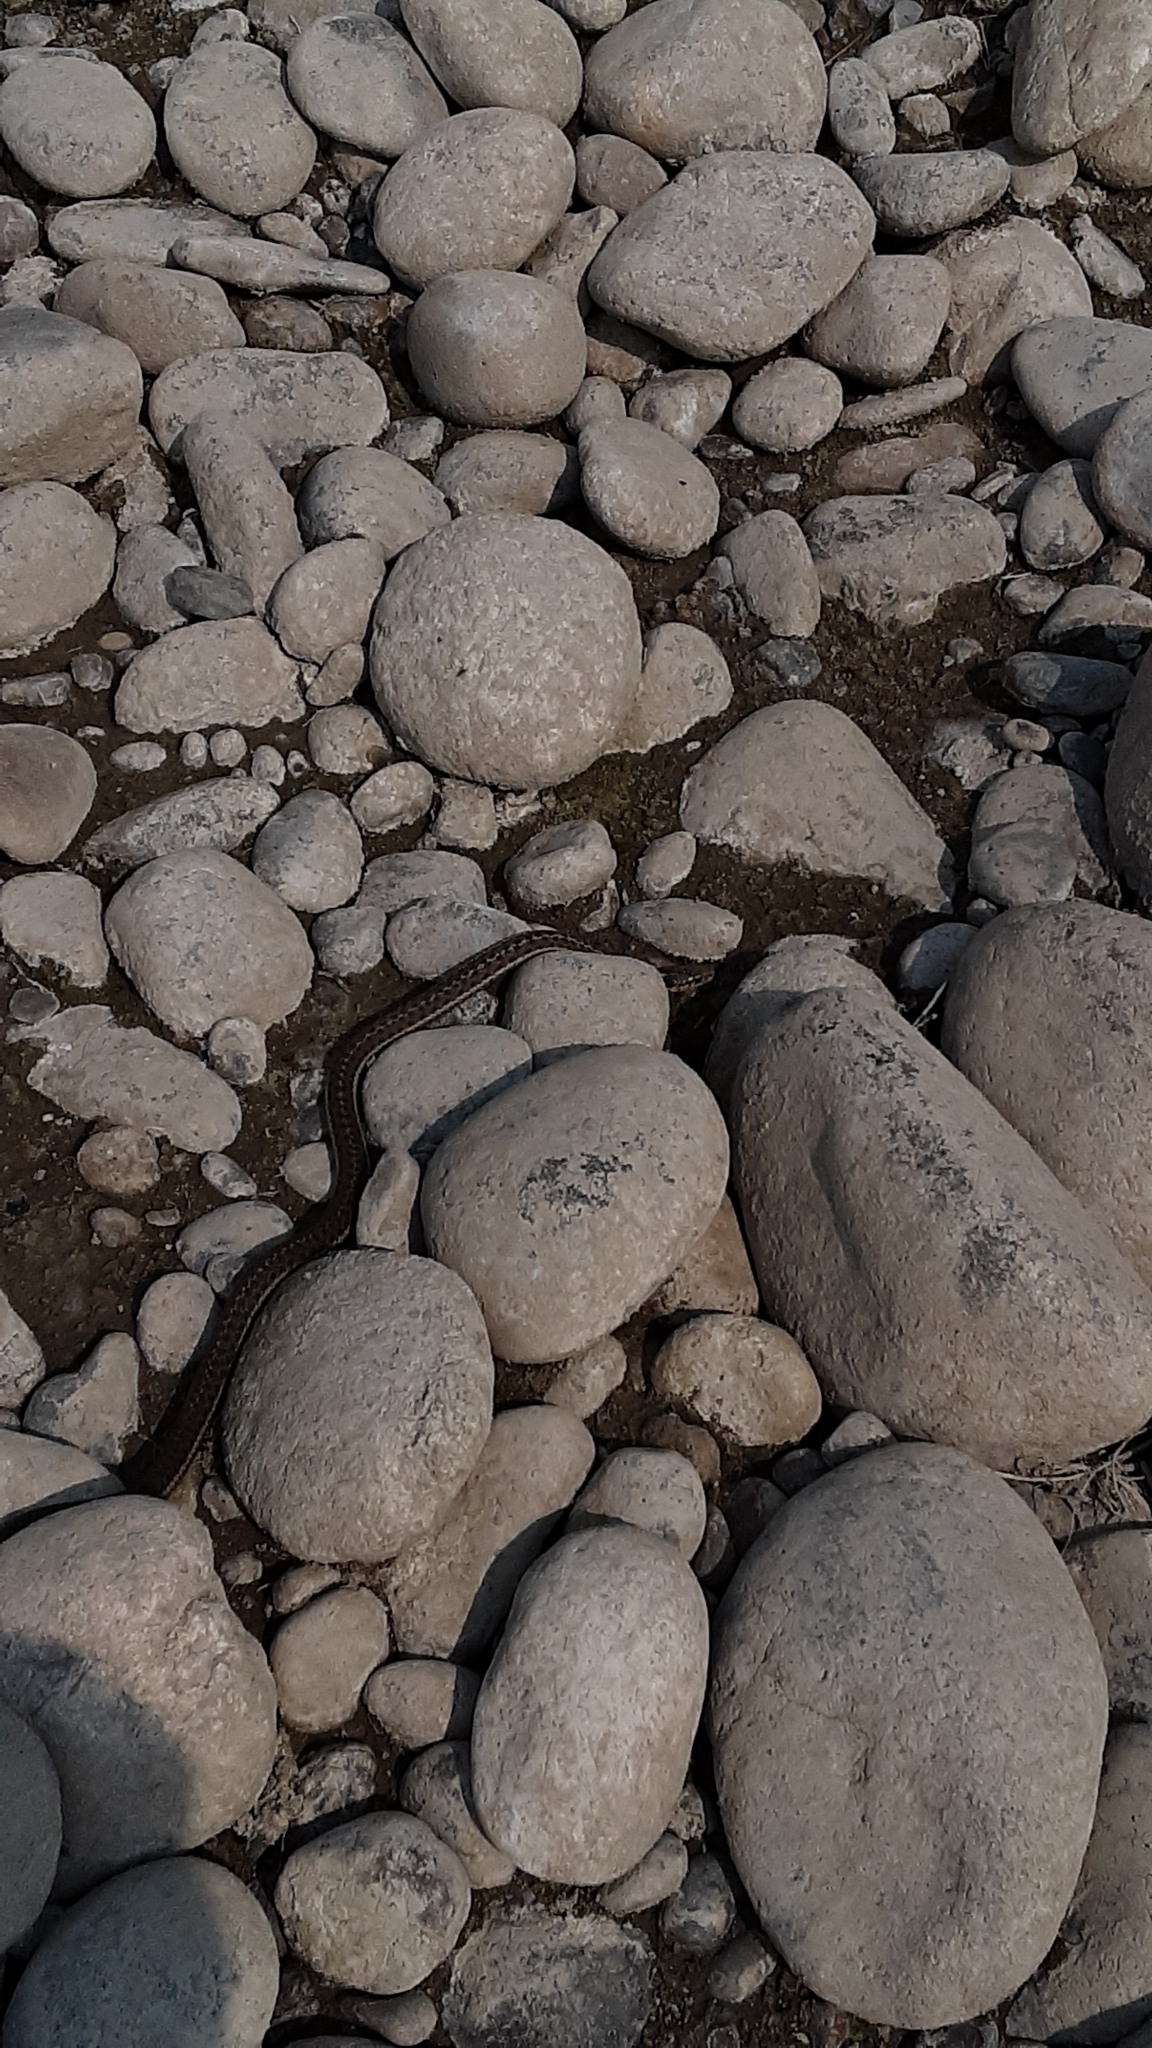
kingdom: Animalia
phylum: Chordata
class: Squamata
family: Colubridae
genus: Thamnophis
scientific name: Thamnophis elegans
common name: Western terrestrial garter snake
